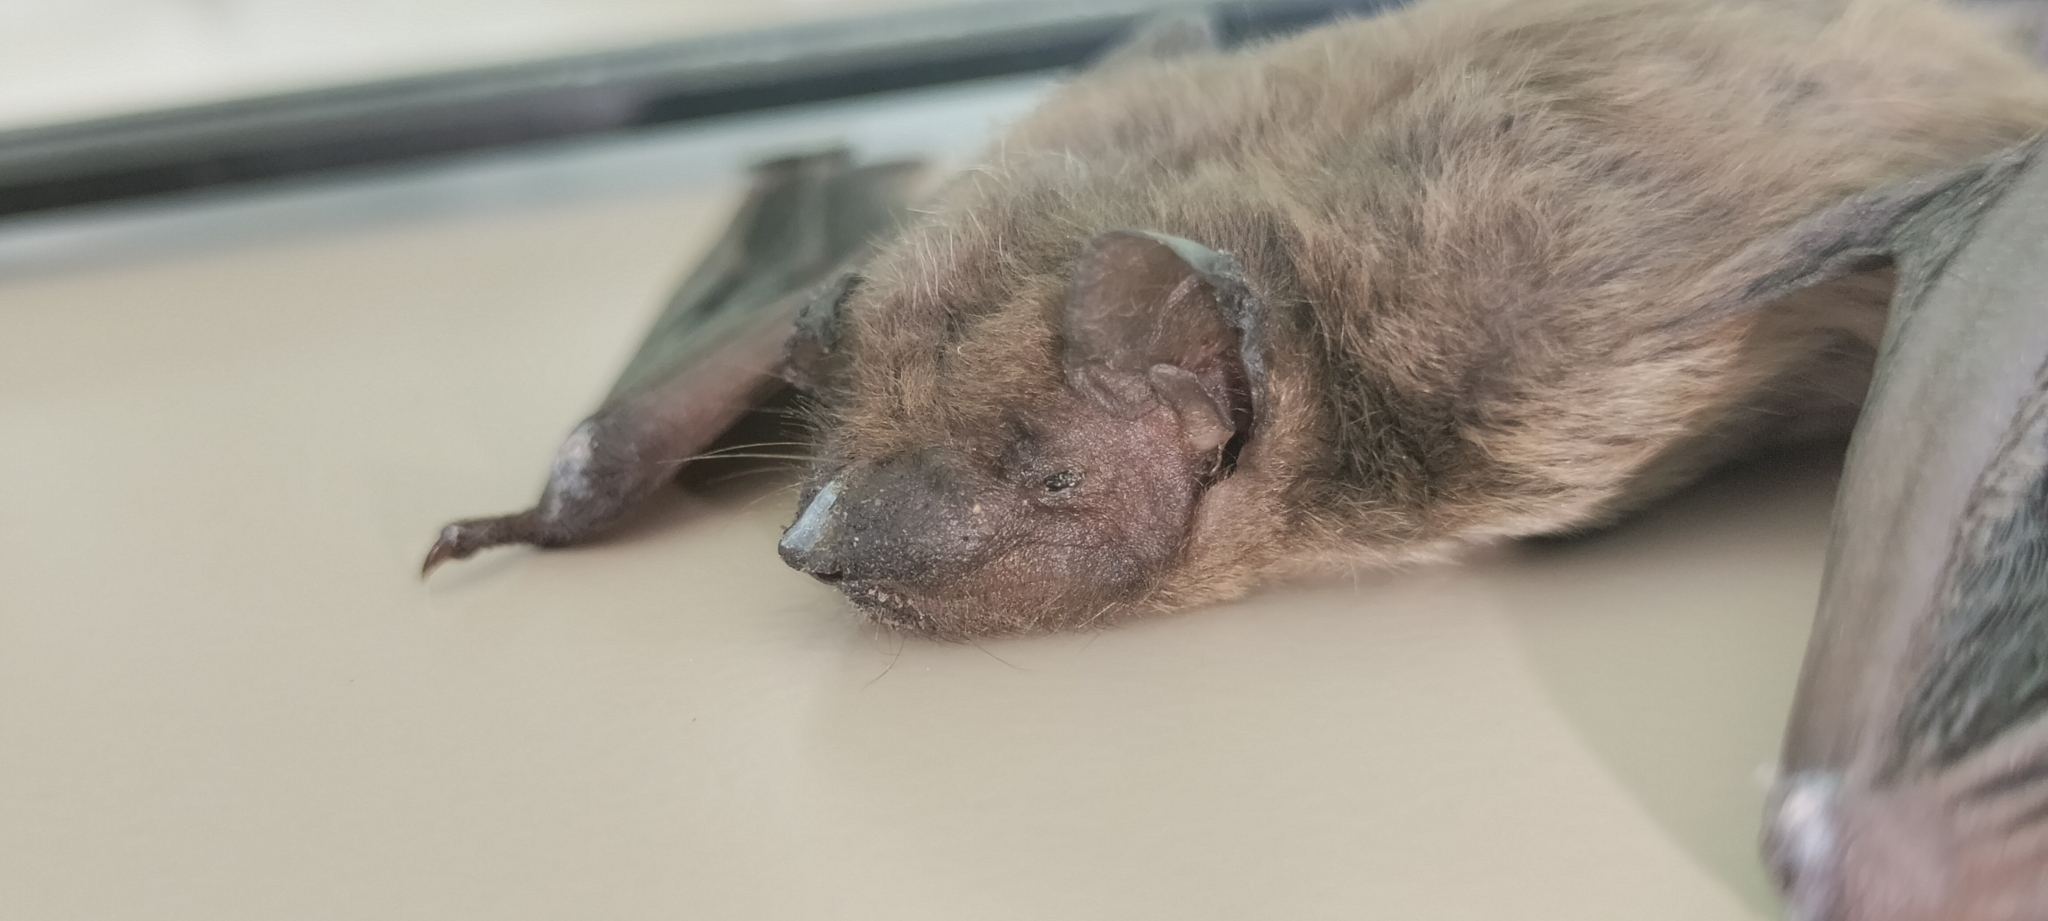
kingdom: Animalia
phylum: Chordata
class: Mammalia
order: Chiroptera
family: Vespertilionidae
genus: Nycticeius
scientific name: Nycticeius humeralis
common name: Evening bat
